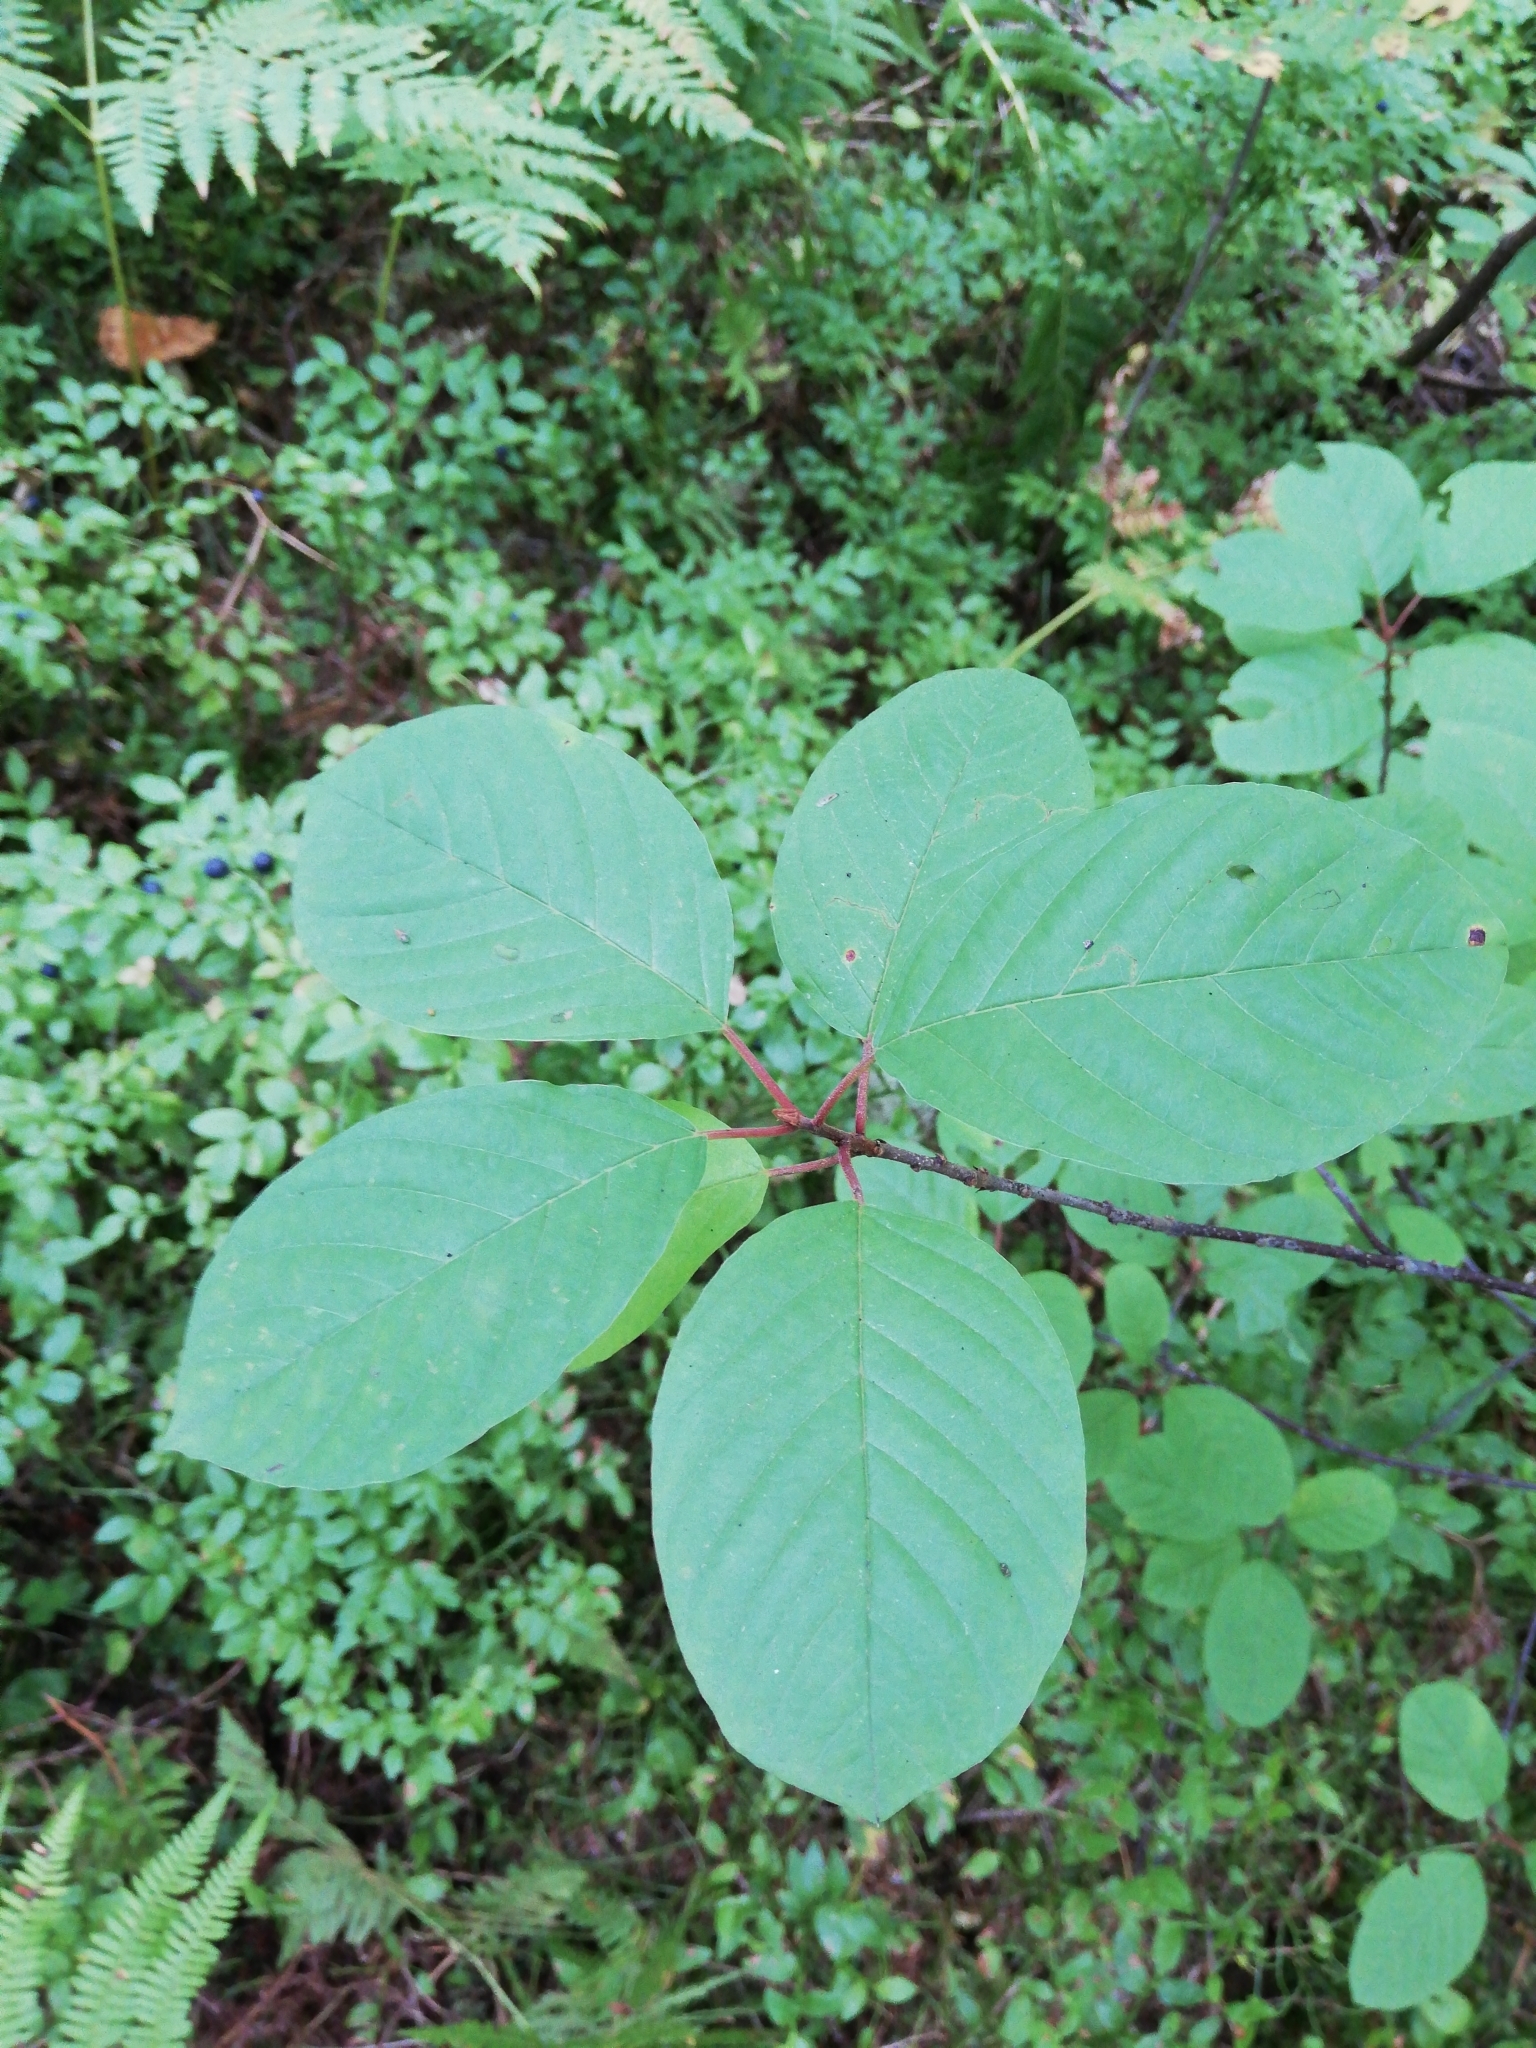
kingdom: Plantae
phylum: Tracheophyta
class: Magnoliopsida
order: Rosales
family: Rhamnaceae
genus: Frangula
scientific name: Frangula alnus
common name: Alder buckthorn
